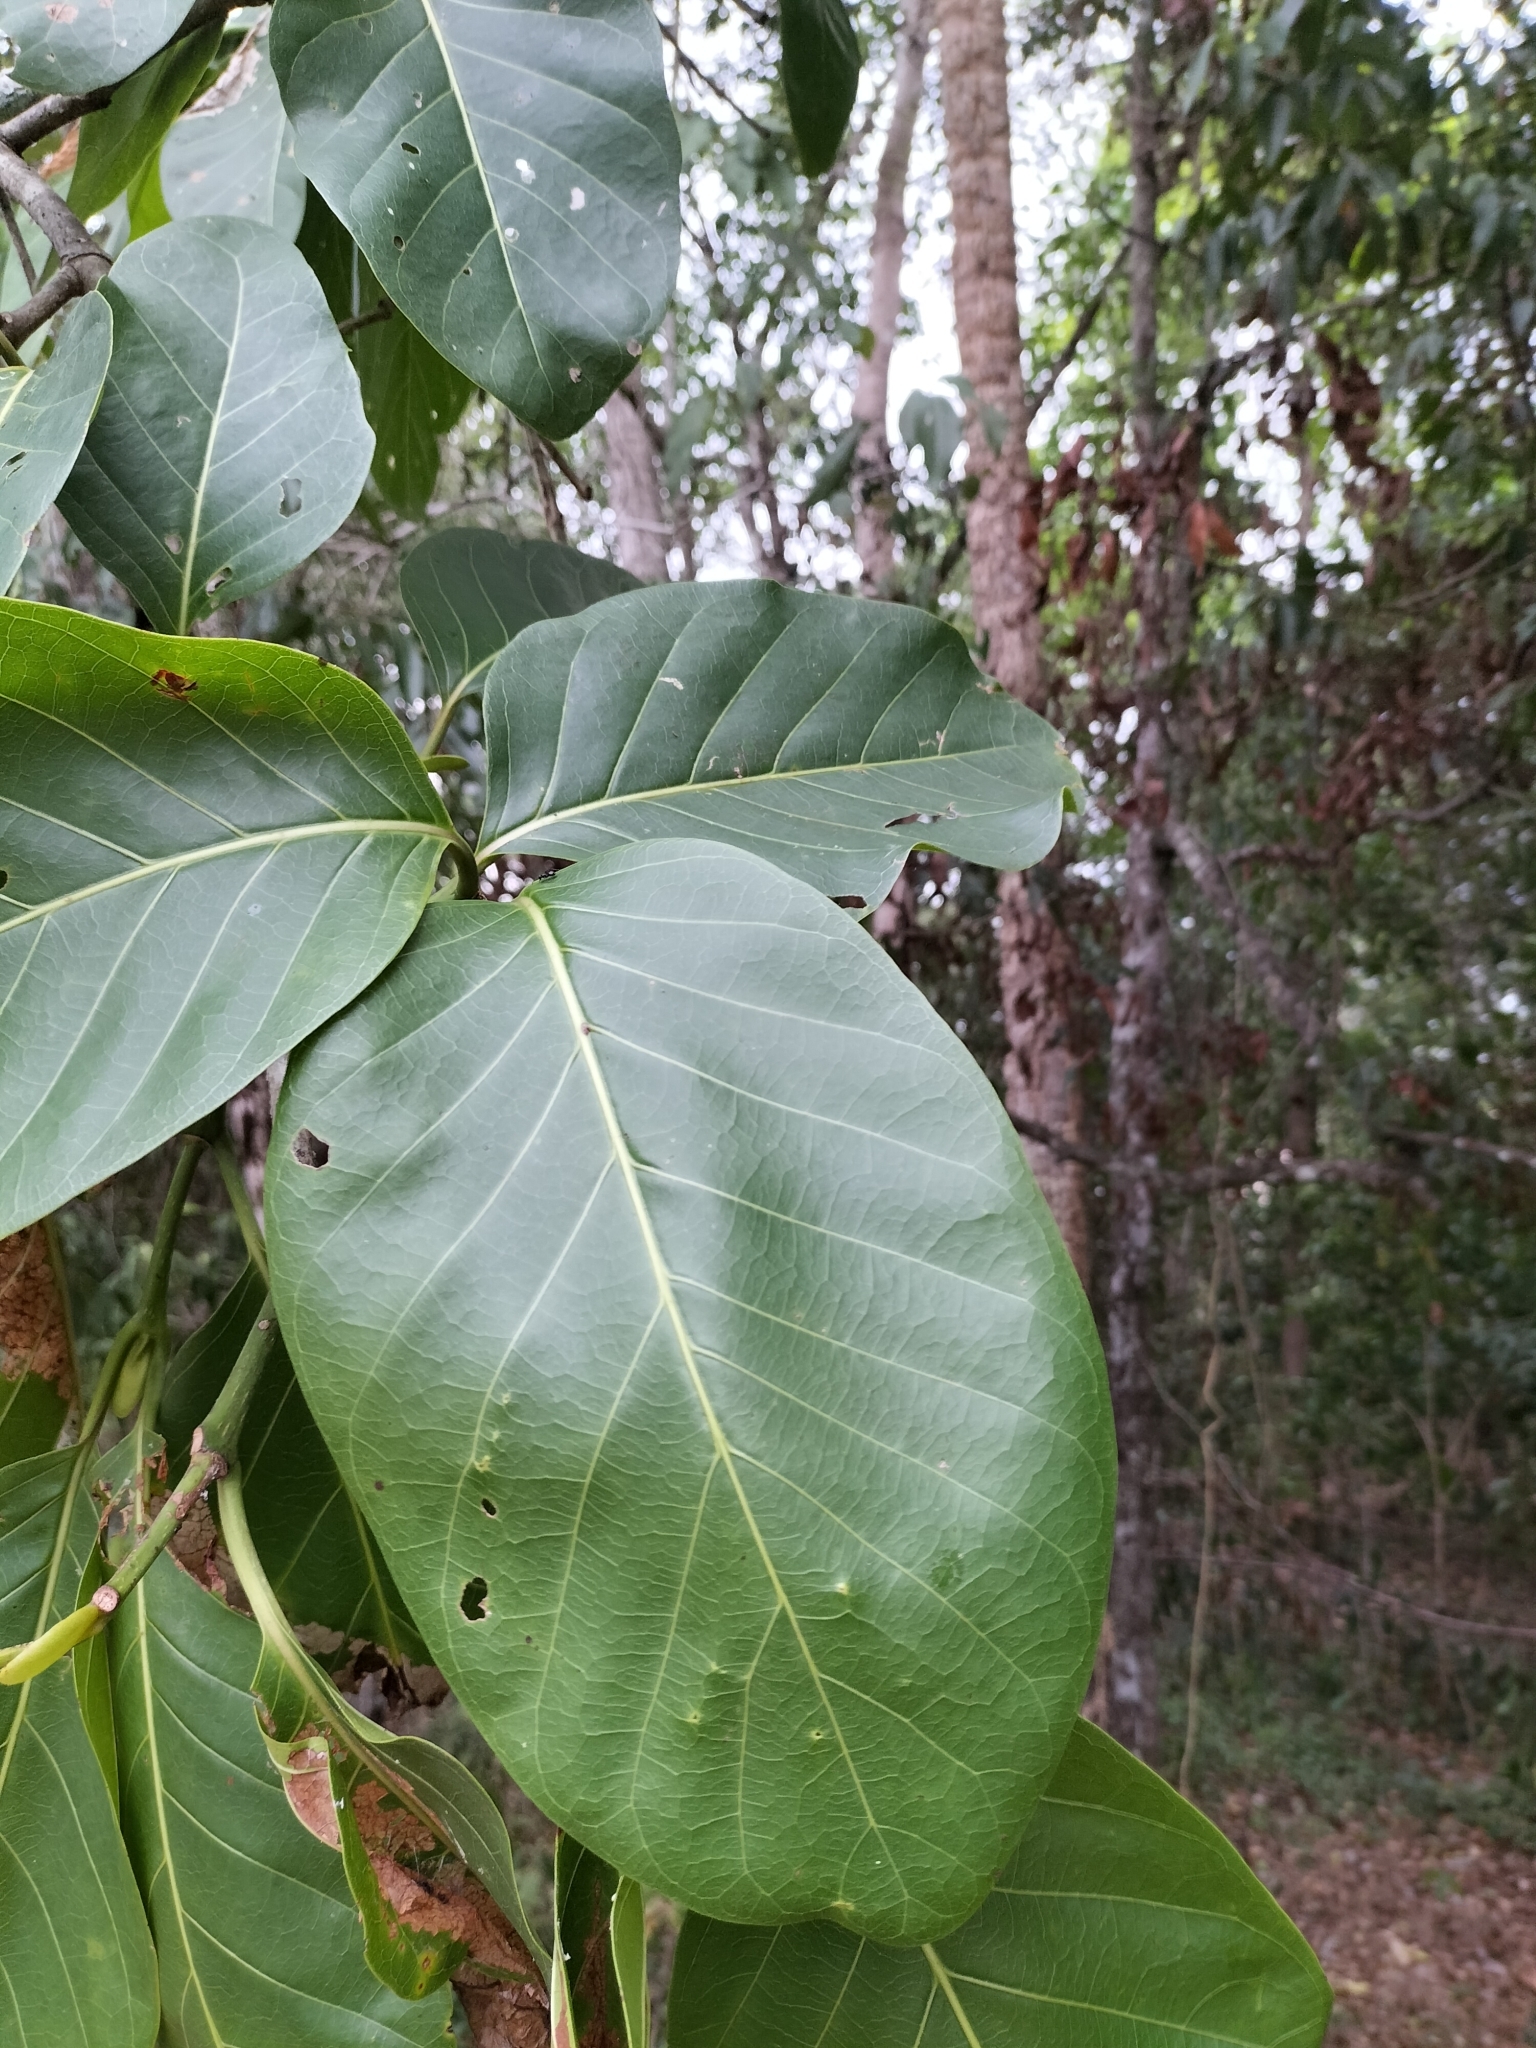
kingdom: Plantae
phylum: Tracheophyta
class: Magnoliopsida
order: Gentianales
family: Rubiaceae
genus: Nauclea
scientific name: Nauclea orientalis
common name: Leichhardt-pine
